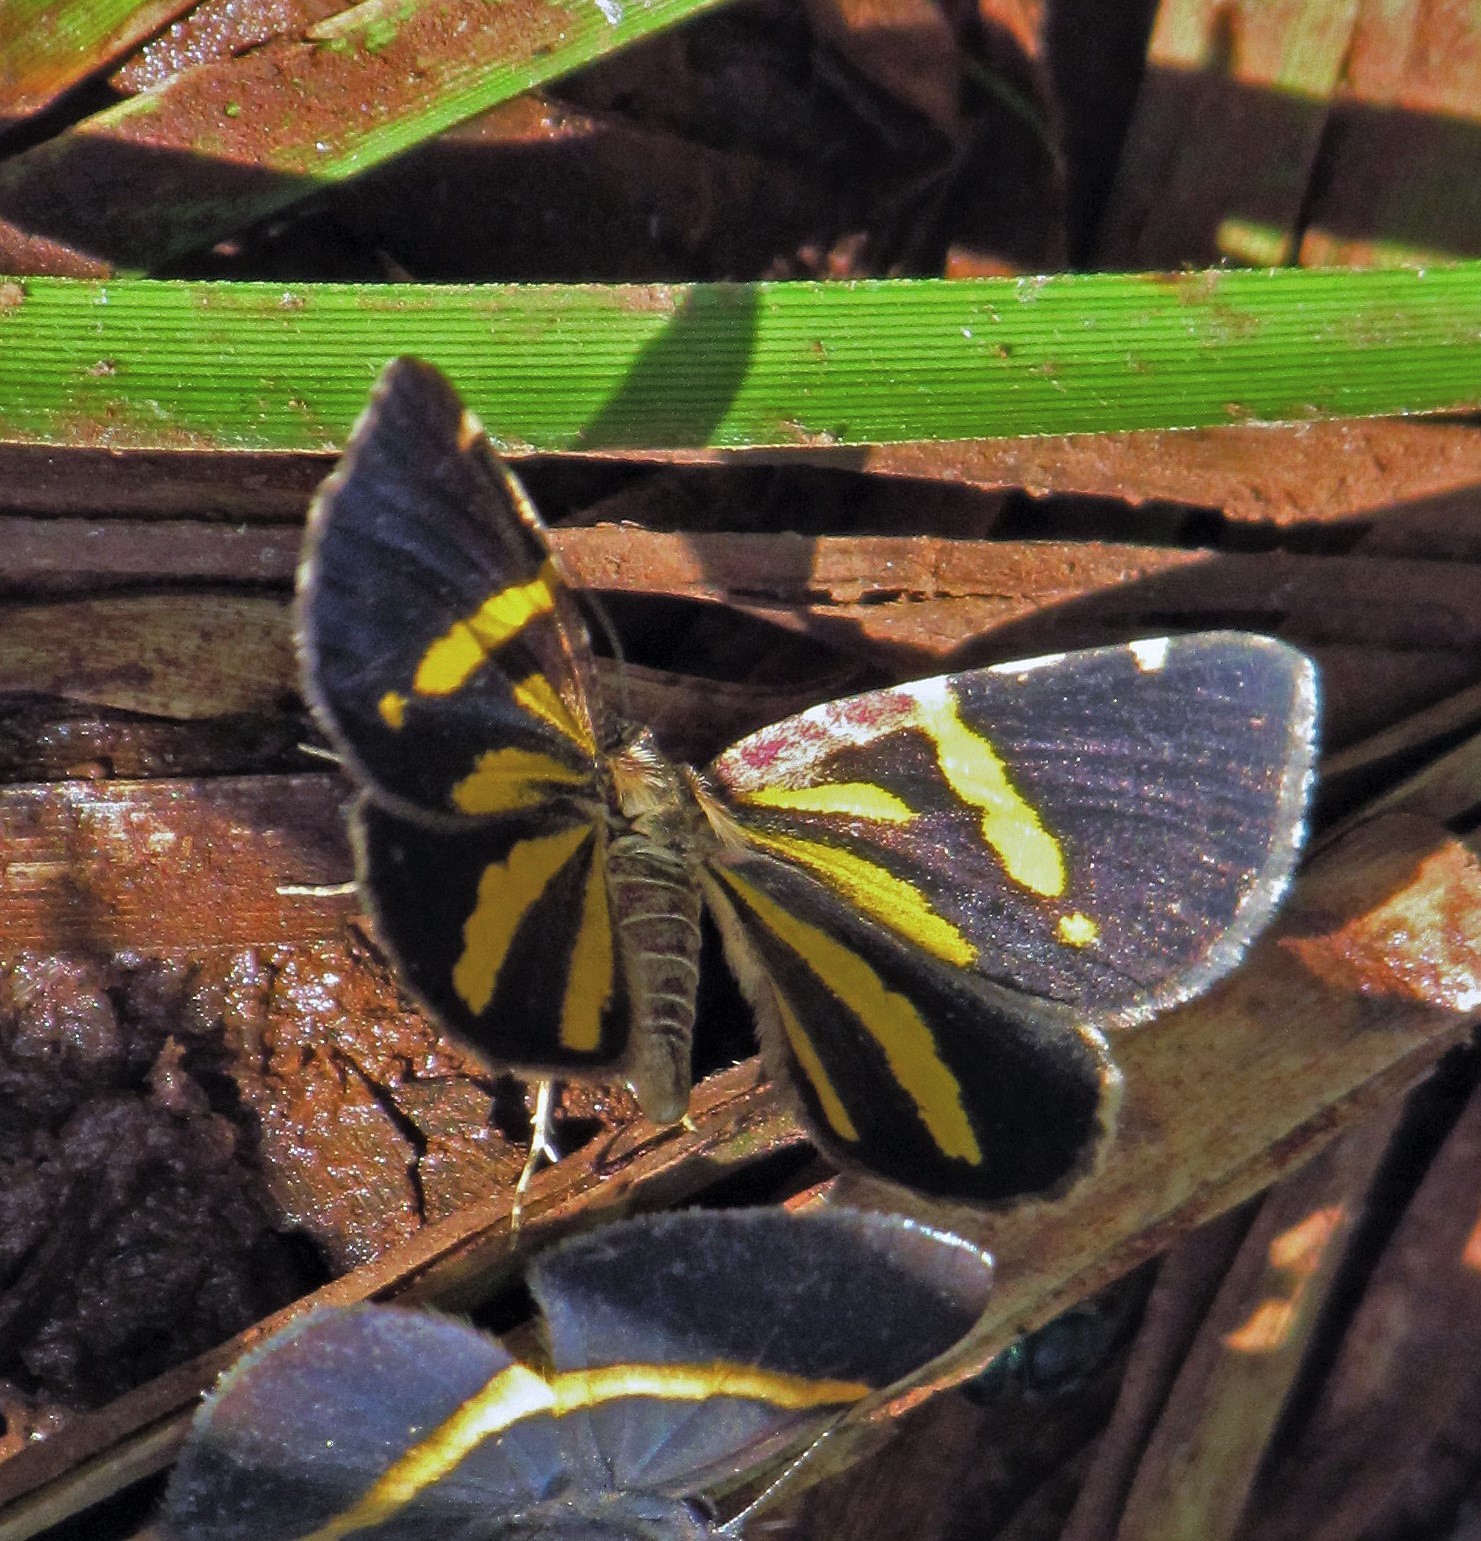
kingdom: Animalia
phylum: Arthropoda
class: Insecta
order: Lepidoptera
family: Geometridae
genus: Heterusia
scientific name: Heterusia quadruplicaria
